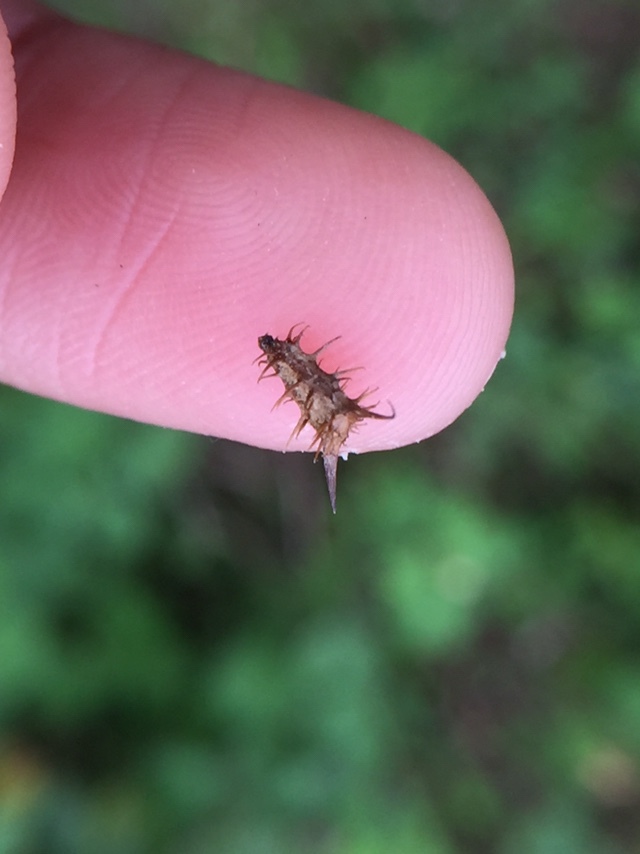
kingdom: Plantae
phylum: Tracheophyta
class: Magnoliopsida
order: Asterales
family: Asteraceae
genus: Acanthospermum
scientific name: Acanthospermum hispidum
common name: Hispid starbur
